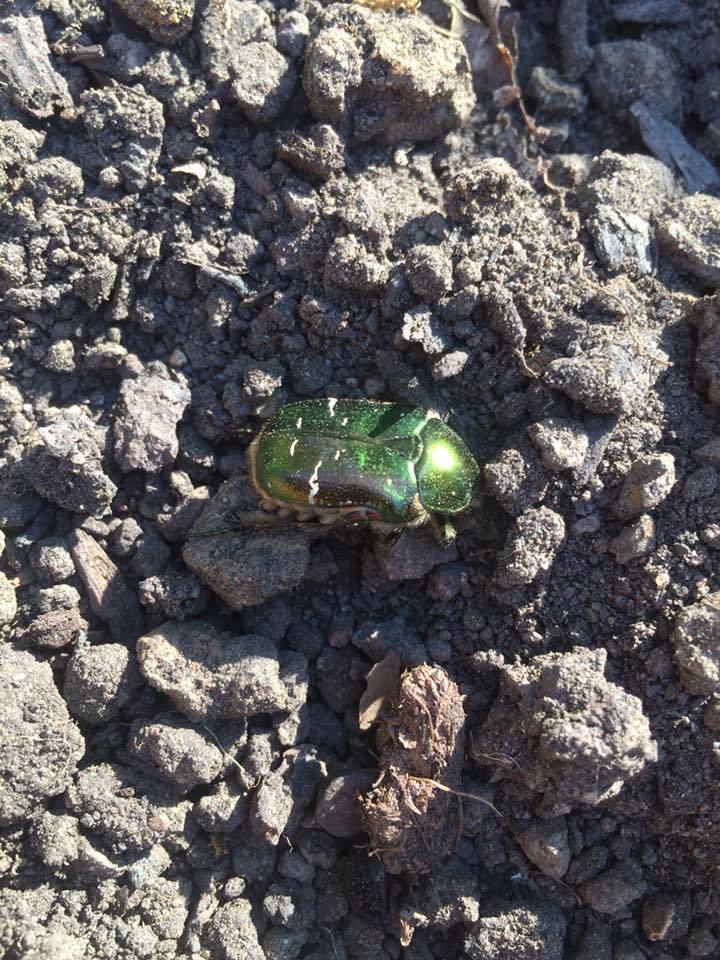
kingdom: Animalia
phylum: Arthropoda
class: Insecta
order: Coleoptera
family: Scarabaeidae
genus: Cetonia
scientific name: Cetonia aurata
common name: Rose chafer
